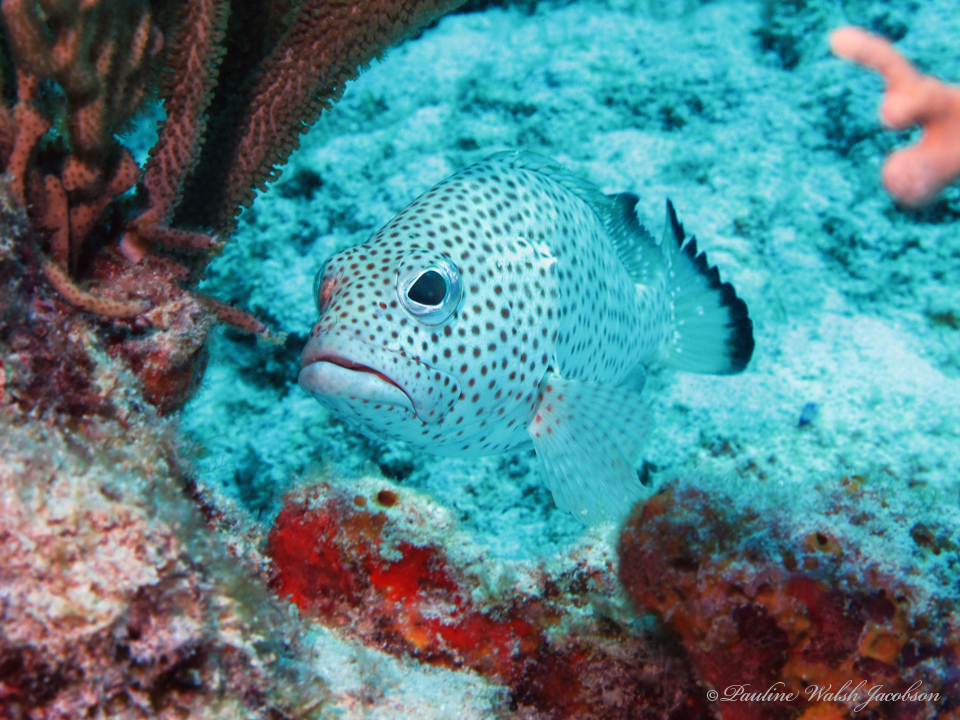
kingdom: Animalia
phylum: Chordata
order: Perciformes
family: Serranidae
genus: Epinephelus
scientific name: Epinephelus guttatus
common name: Red hind
